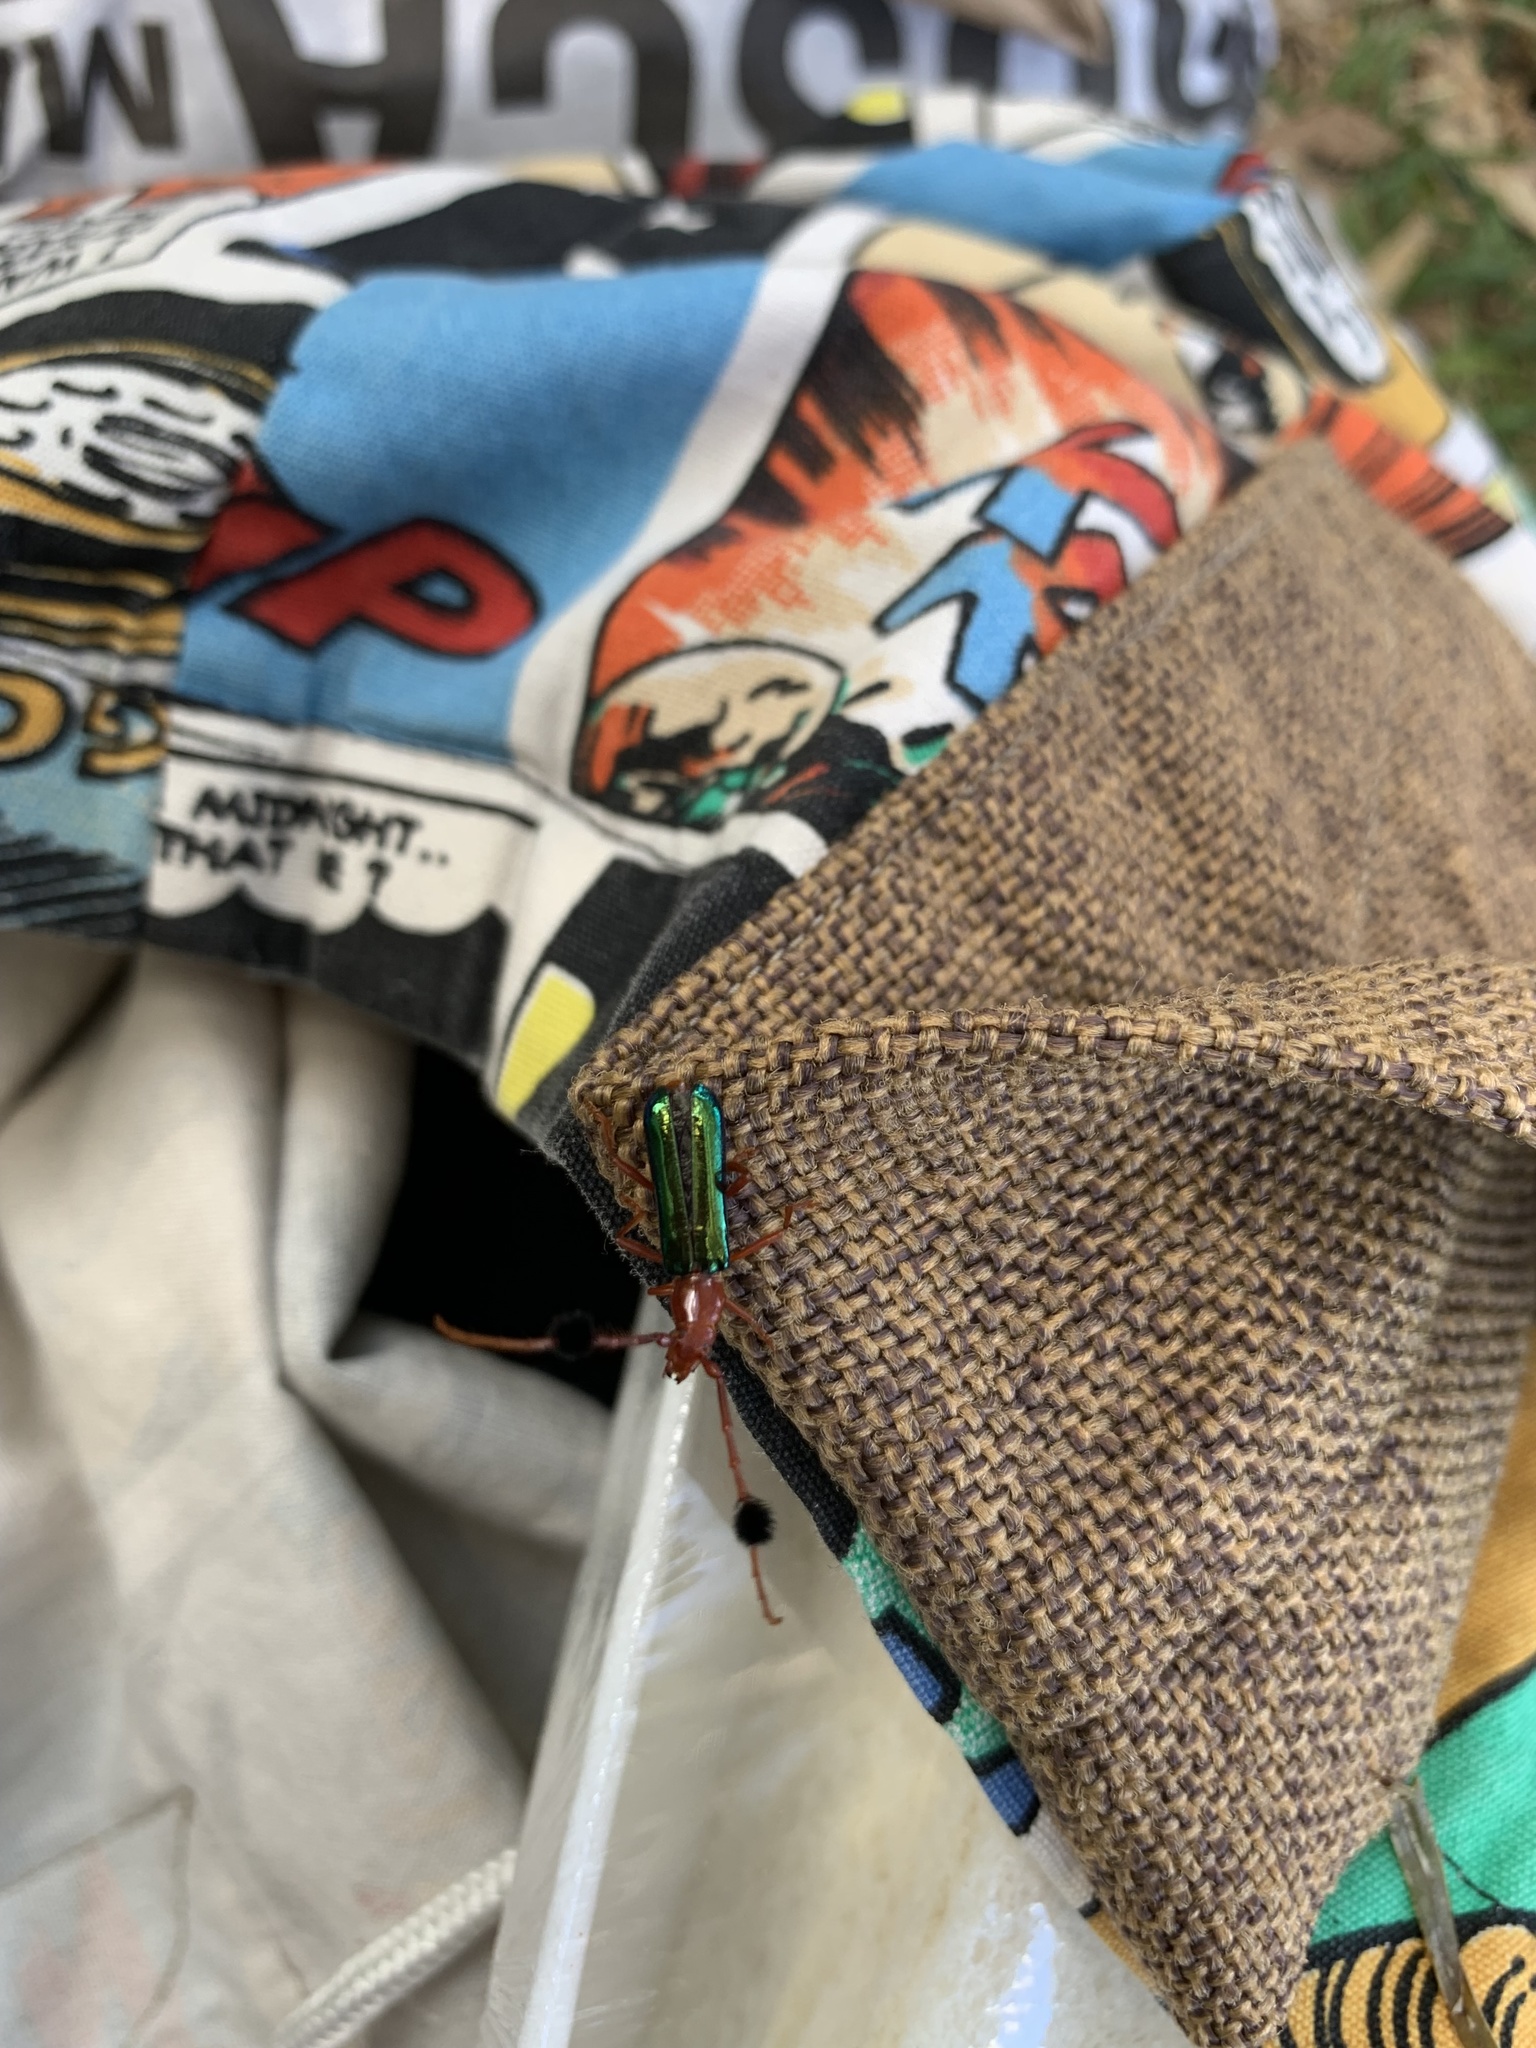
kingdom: Animalia
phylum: Arthropoda
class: Insecta
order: Coleoptera
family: Cerambycidae
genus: Compsocerus
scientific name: Compsocerus violaceus
